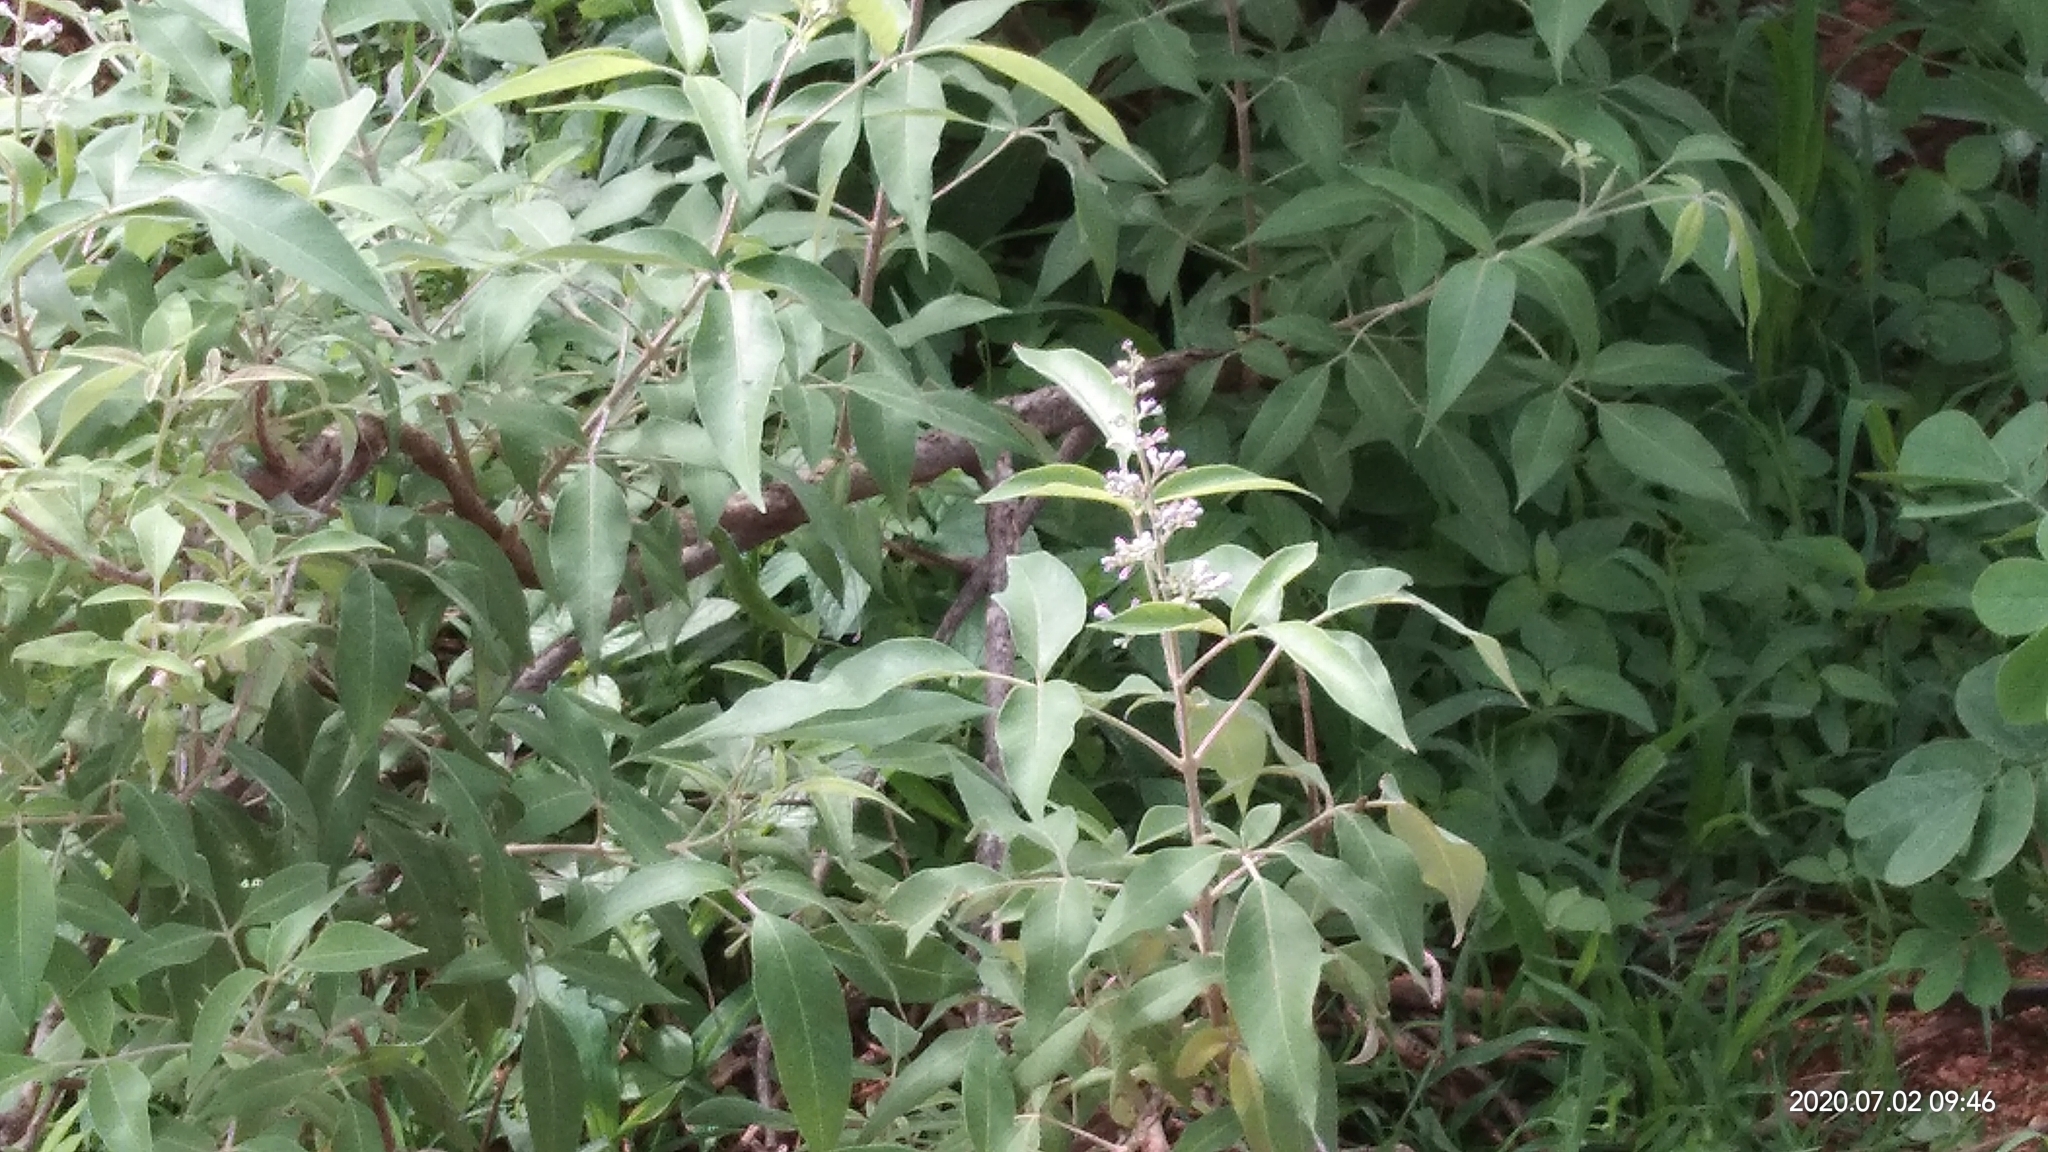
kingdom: Plantae
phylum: Tracheophyta
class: Magnoliopsida
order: Lamiales
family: Lamiaceae
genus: Vitex
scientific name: Vitex negundo
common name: Chinese chastetree
